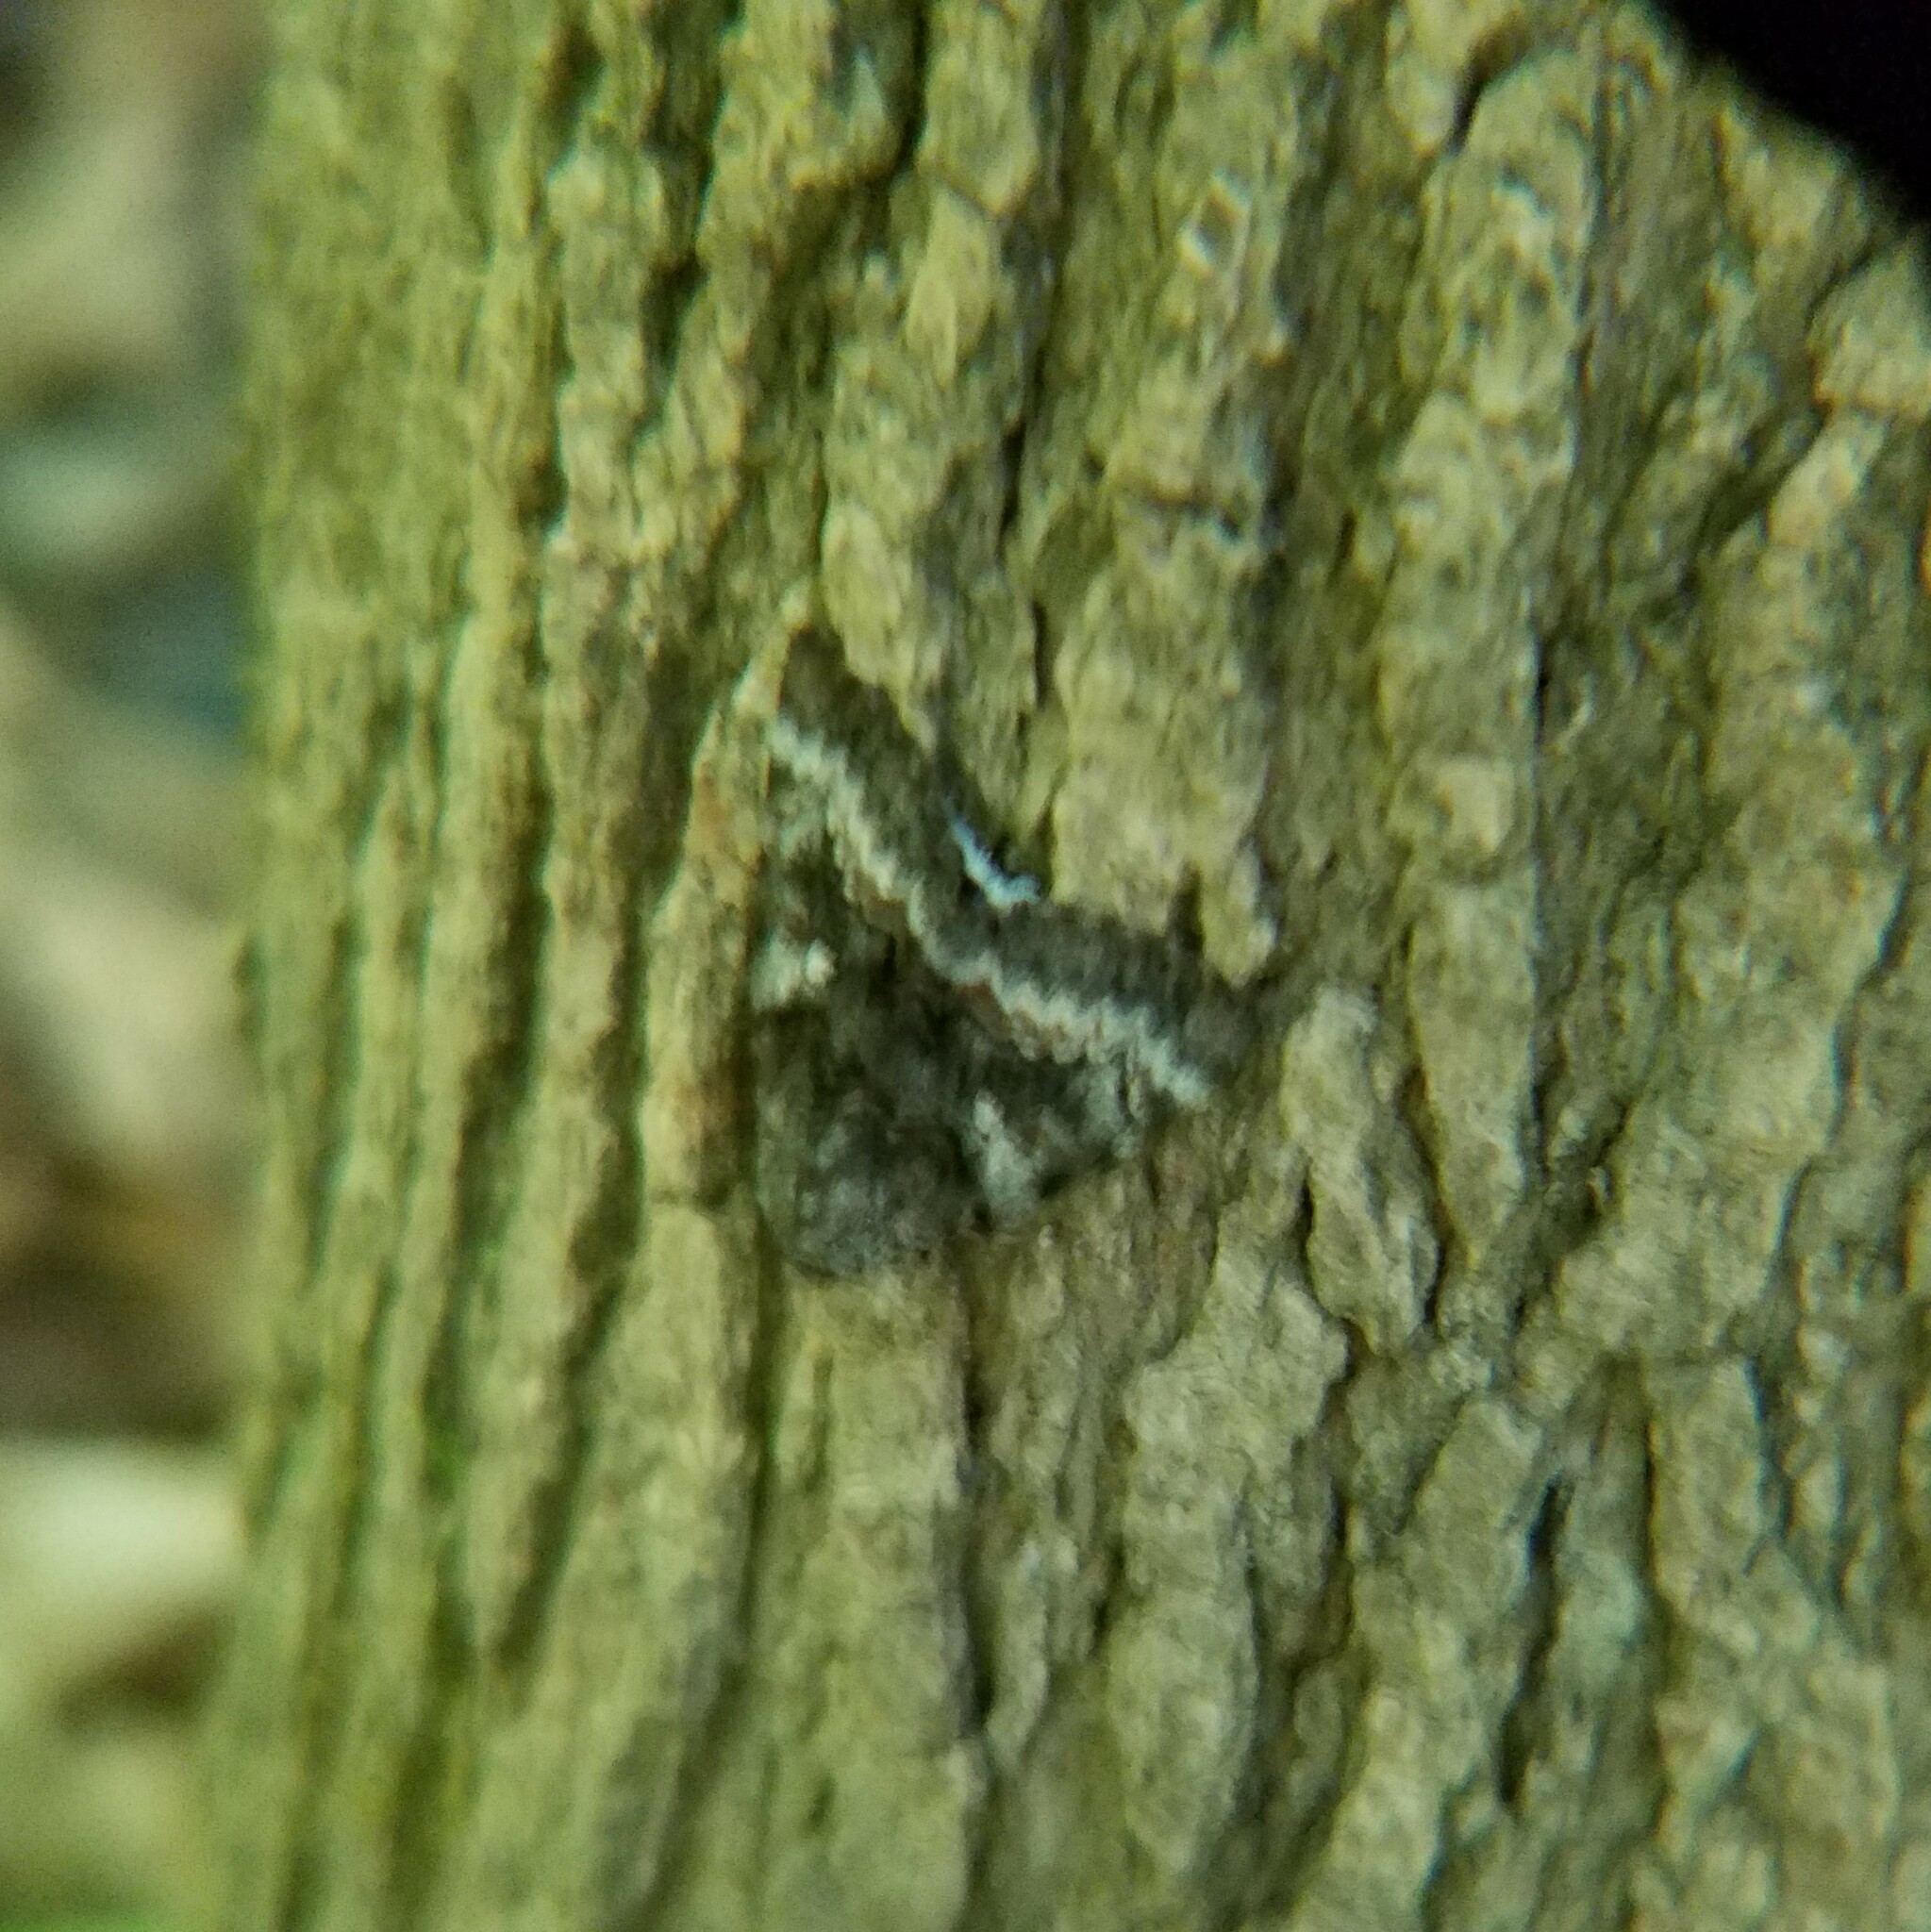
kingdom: Animalia
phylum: Arthropoda
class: Insecta
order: Lepidoptera
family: Erebidae
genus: Catocala
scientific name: Catocala epione
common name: Epione underwing
